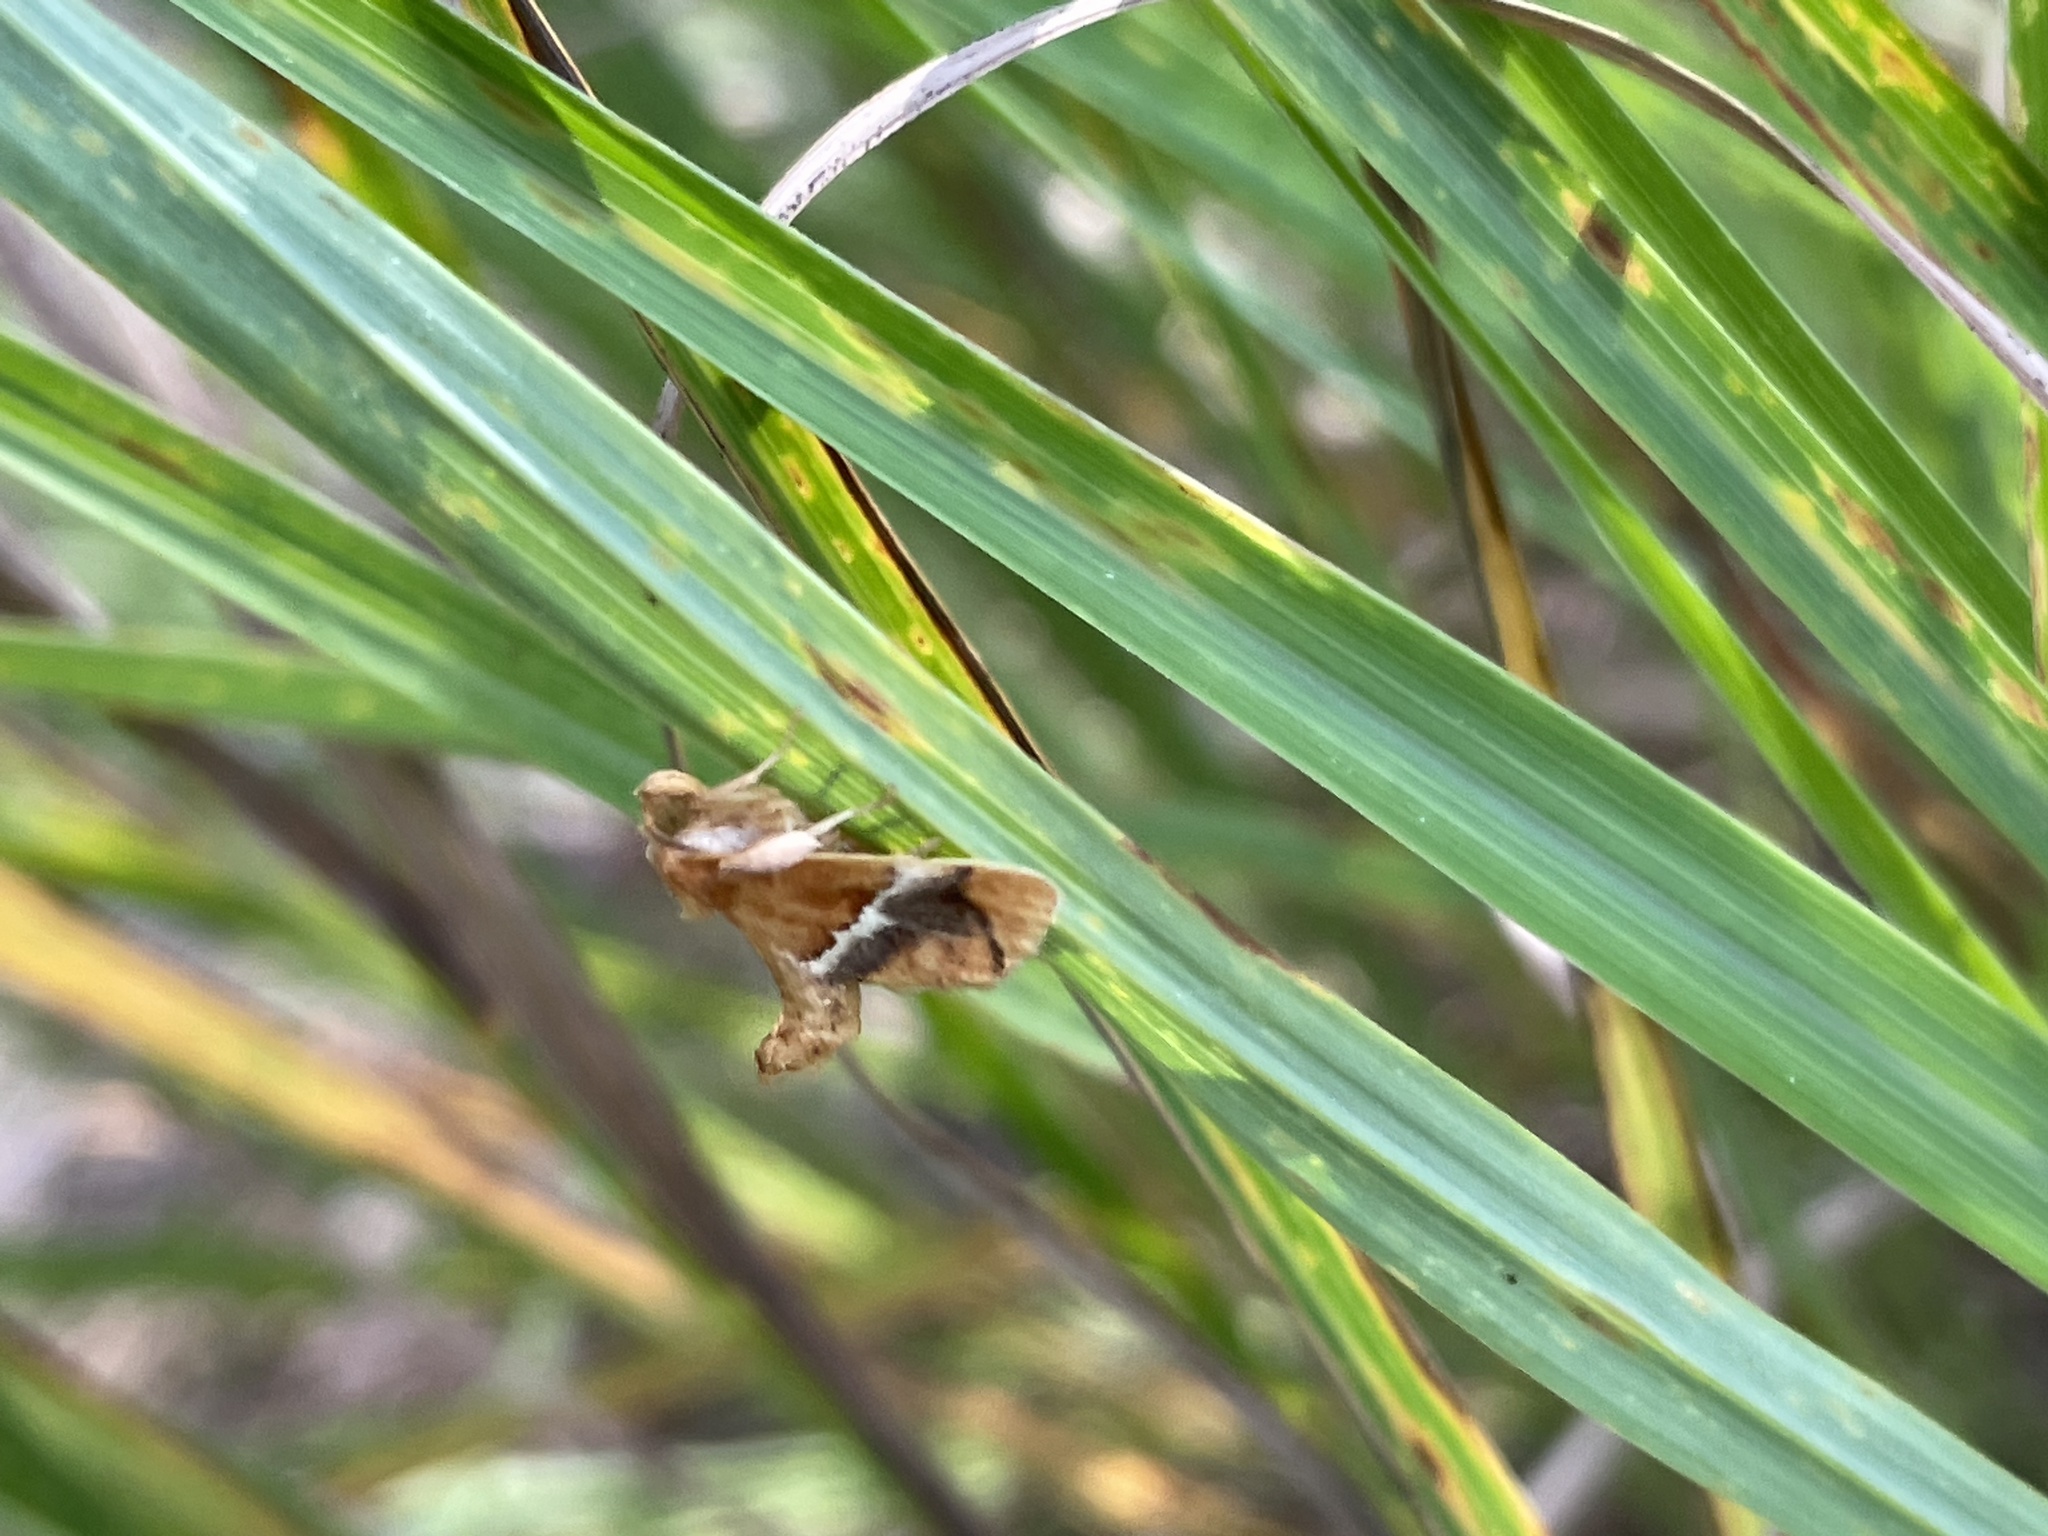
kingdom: Animalia
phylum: Arthropoda
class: Insecta
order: Lepidoptera
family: Limacodidae
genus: Lithacodes
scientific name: Lithacodes fasciola
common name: Yellow-shouldered slug moth
